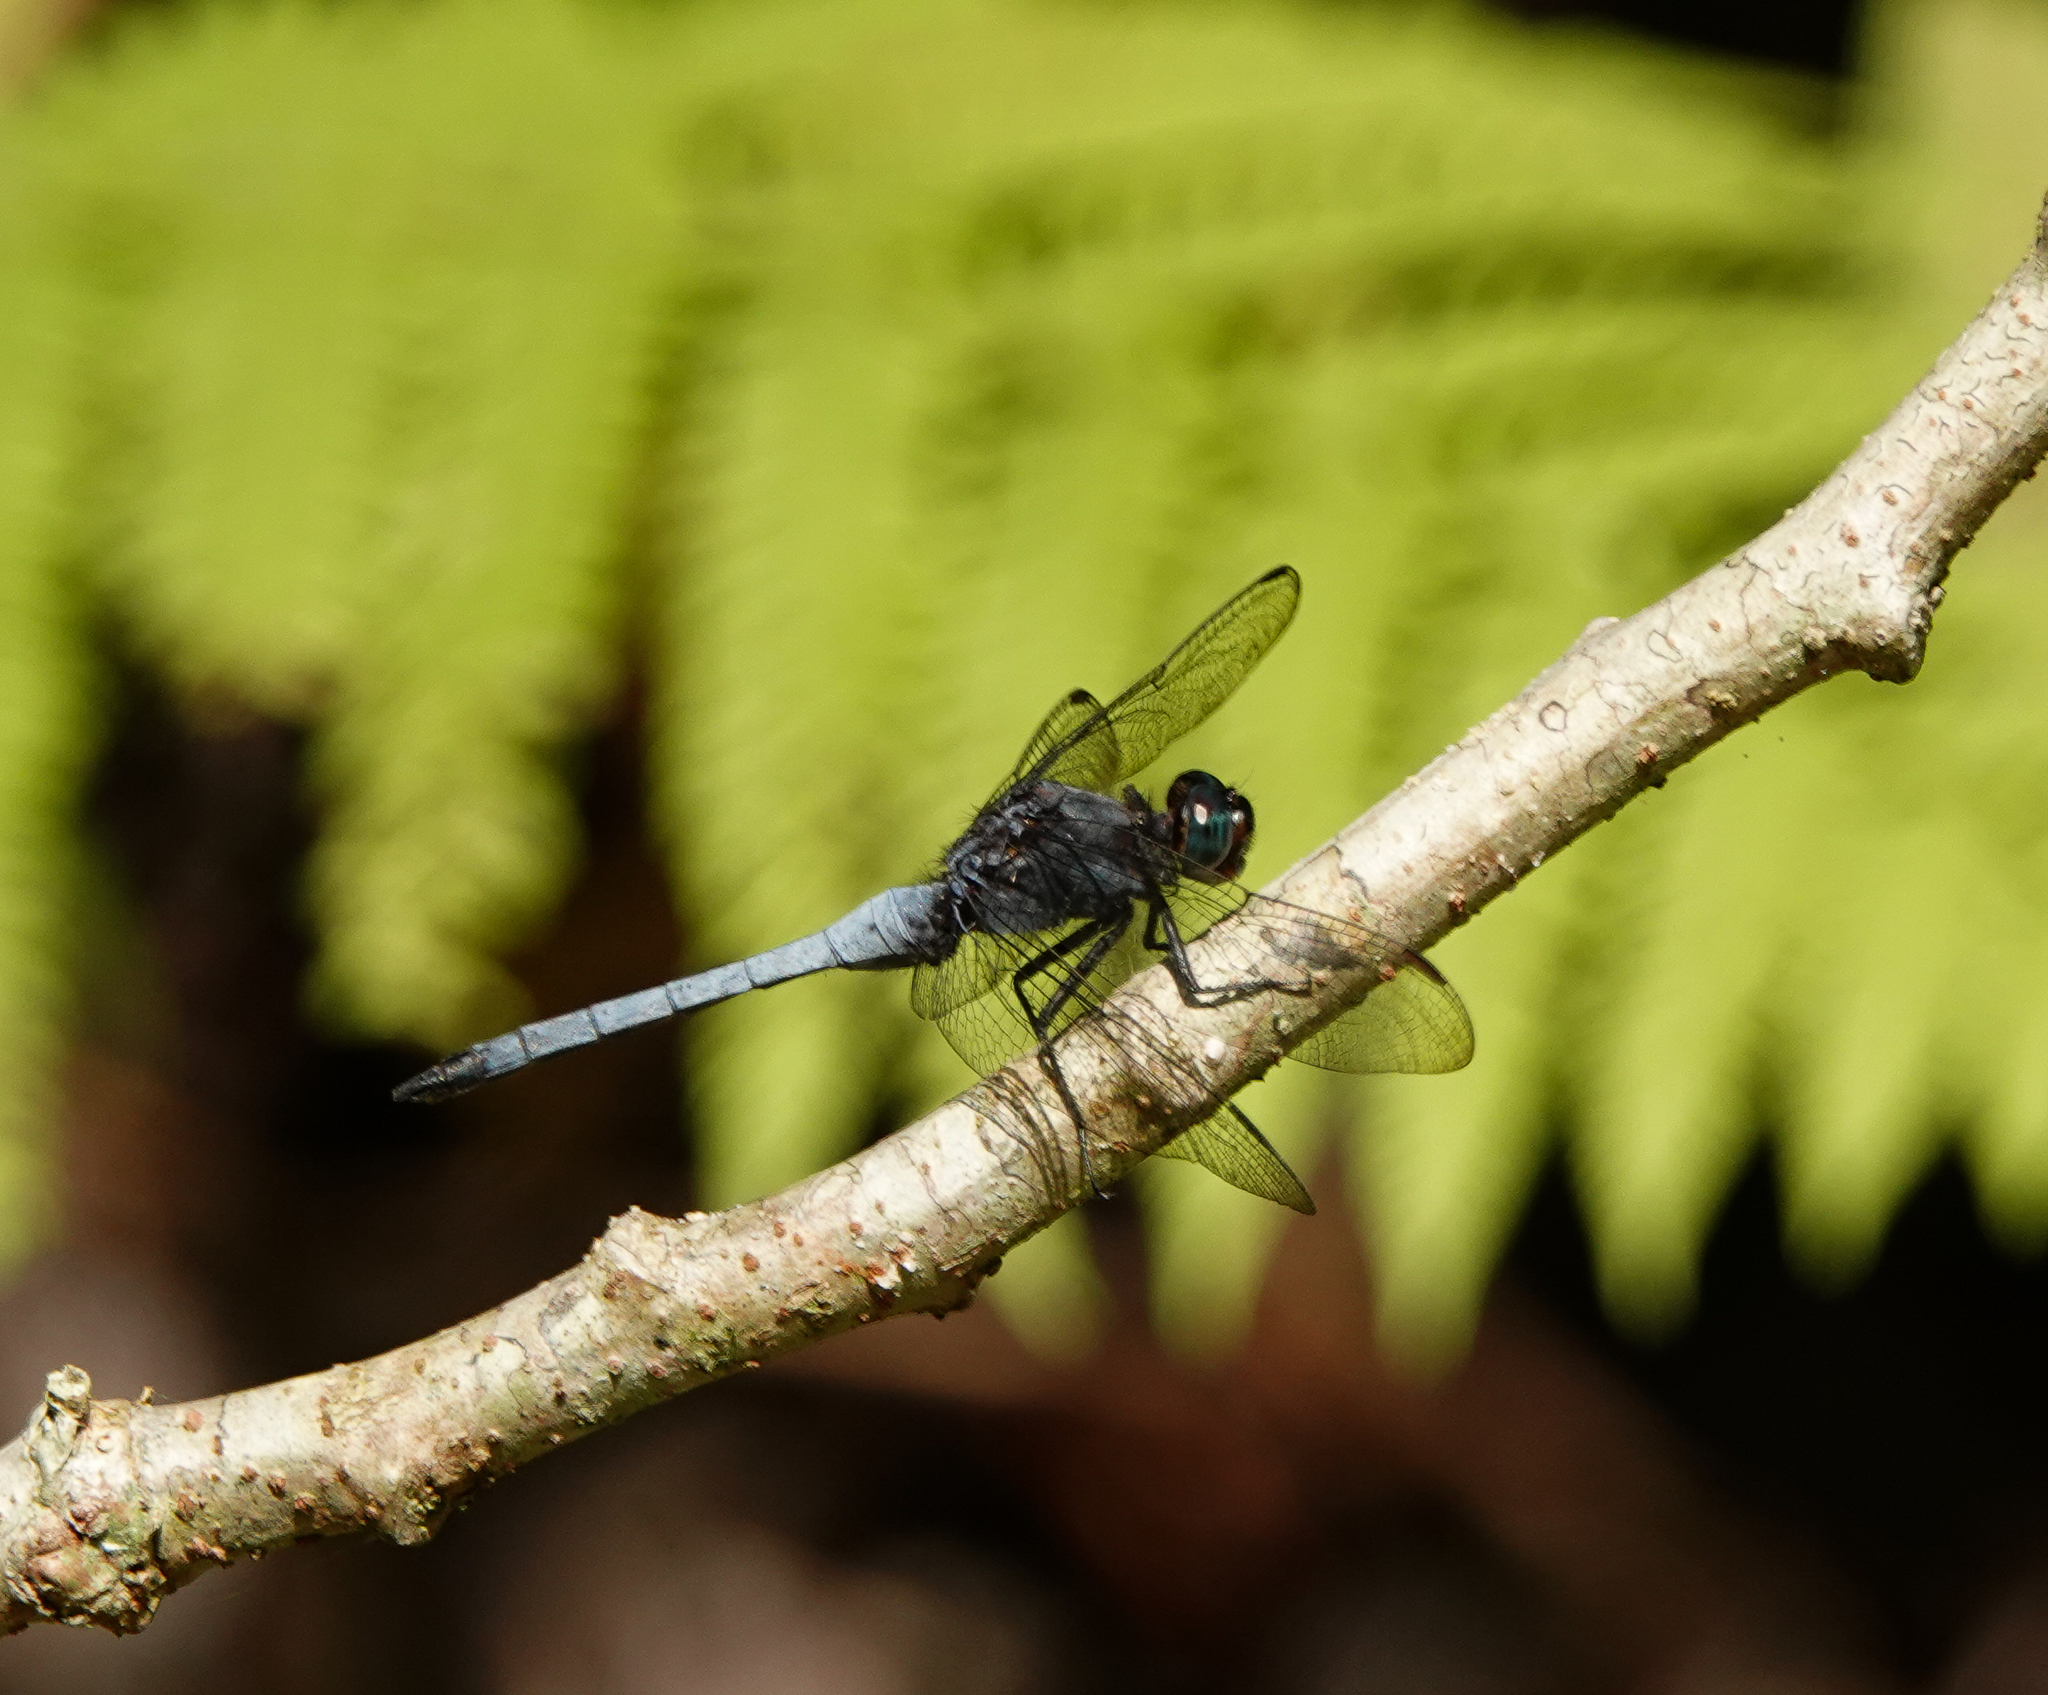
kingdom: Animalia
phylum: Arthropoda
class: Insecta
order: Odonata
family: Libellulidae
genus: Orthetrum
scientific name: Orthetrum glaucum
